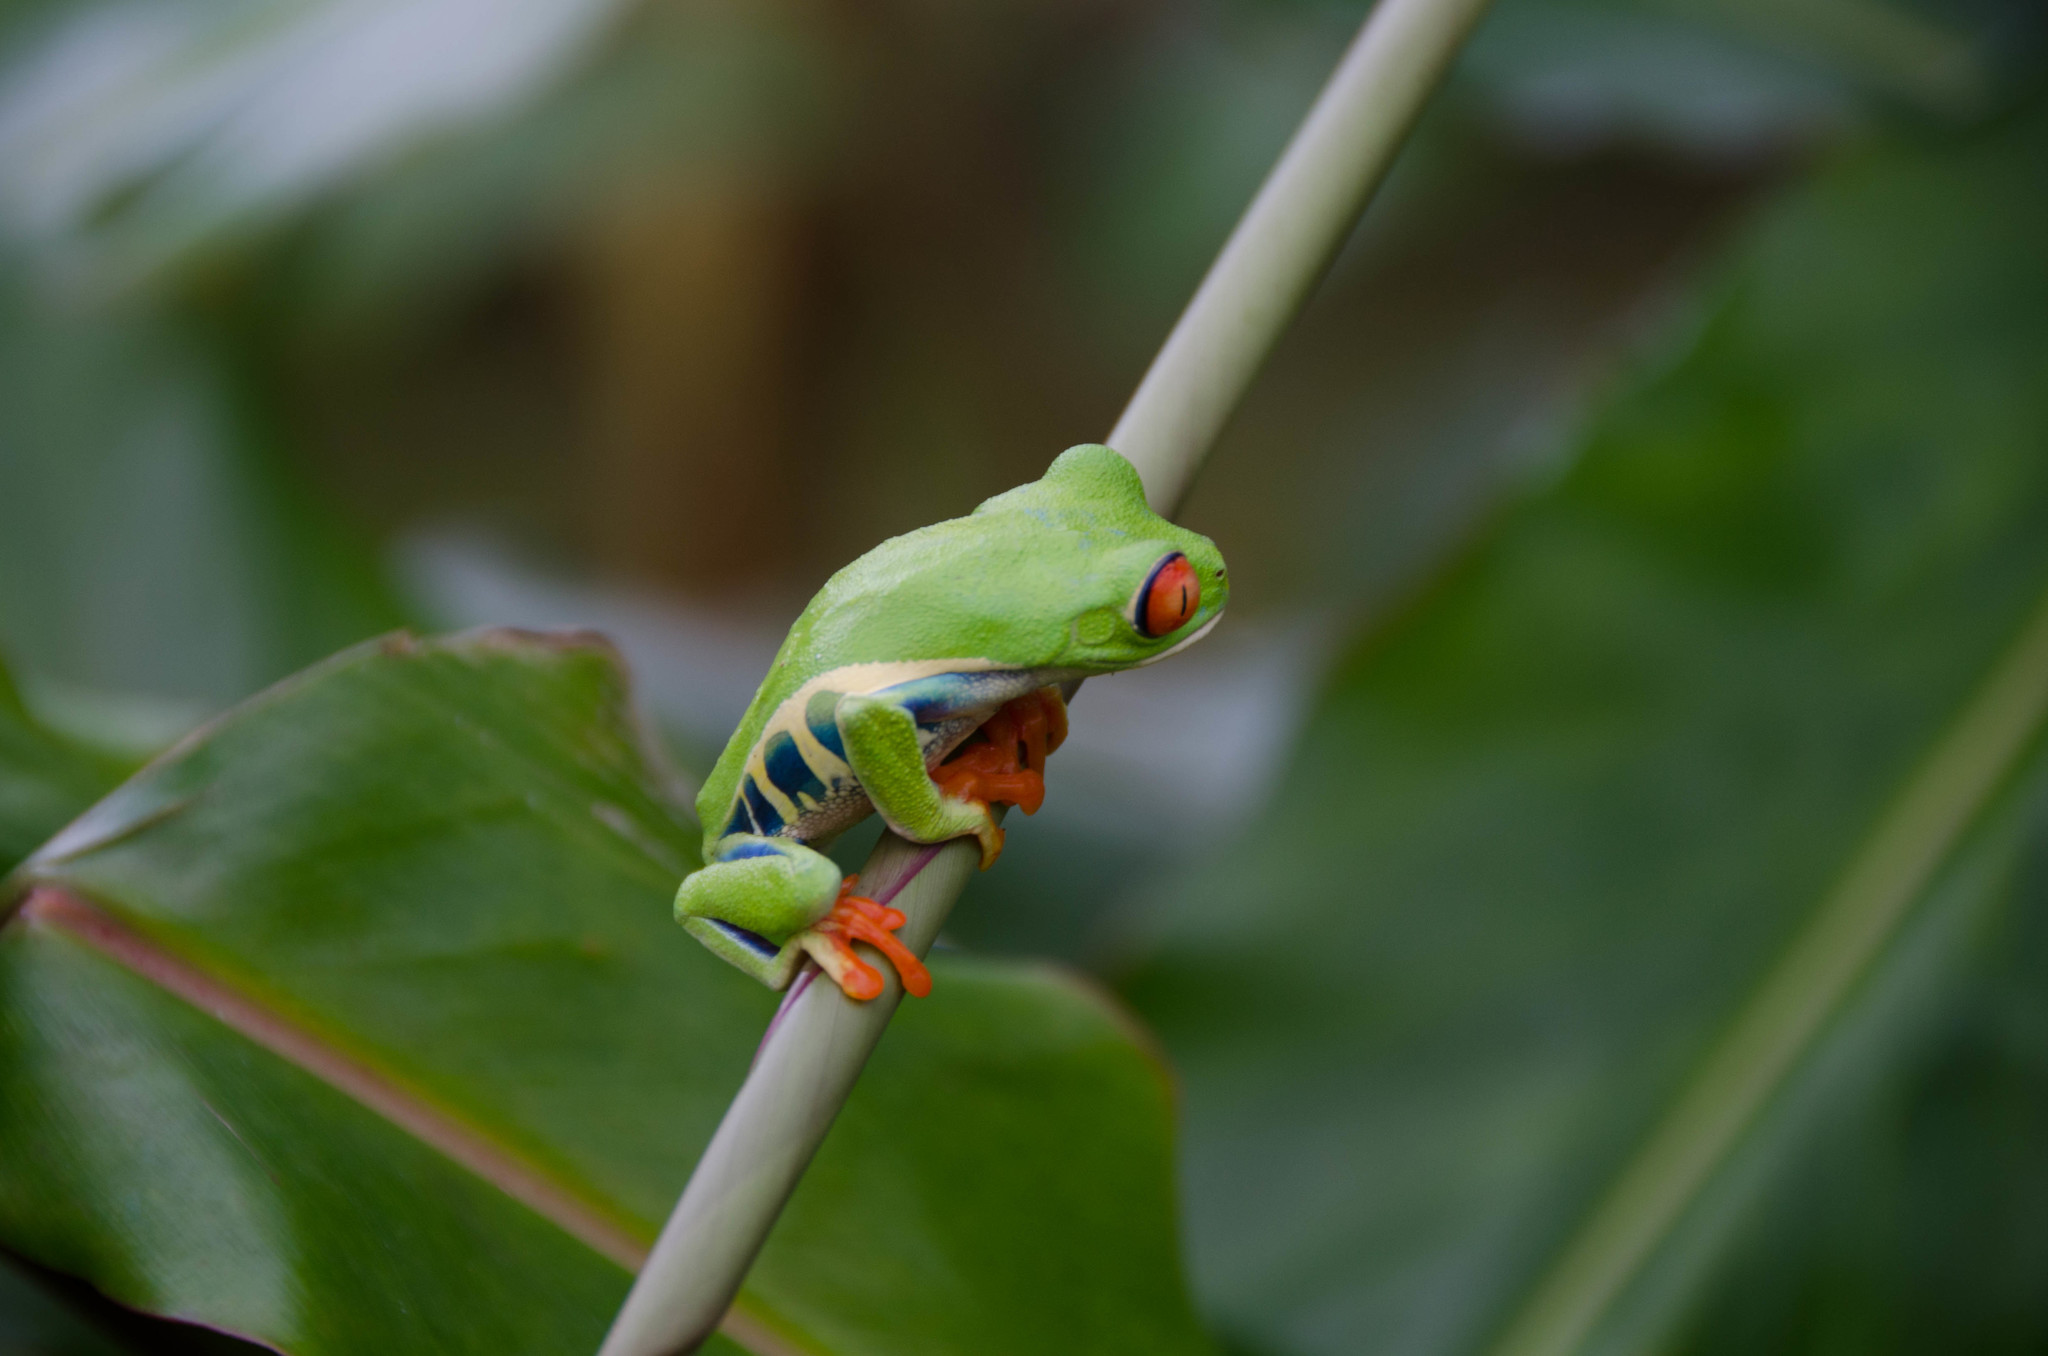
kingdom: Animalia
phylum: Chordata
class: Amphibia
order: Anura
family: Phyllomedusidae
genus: Agalychnis
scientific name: Agalychnis callidryas
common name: Red-eyed treefrog
